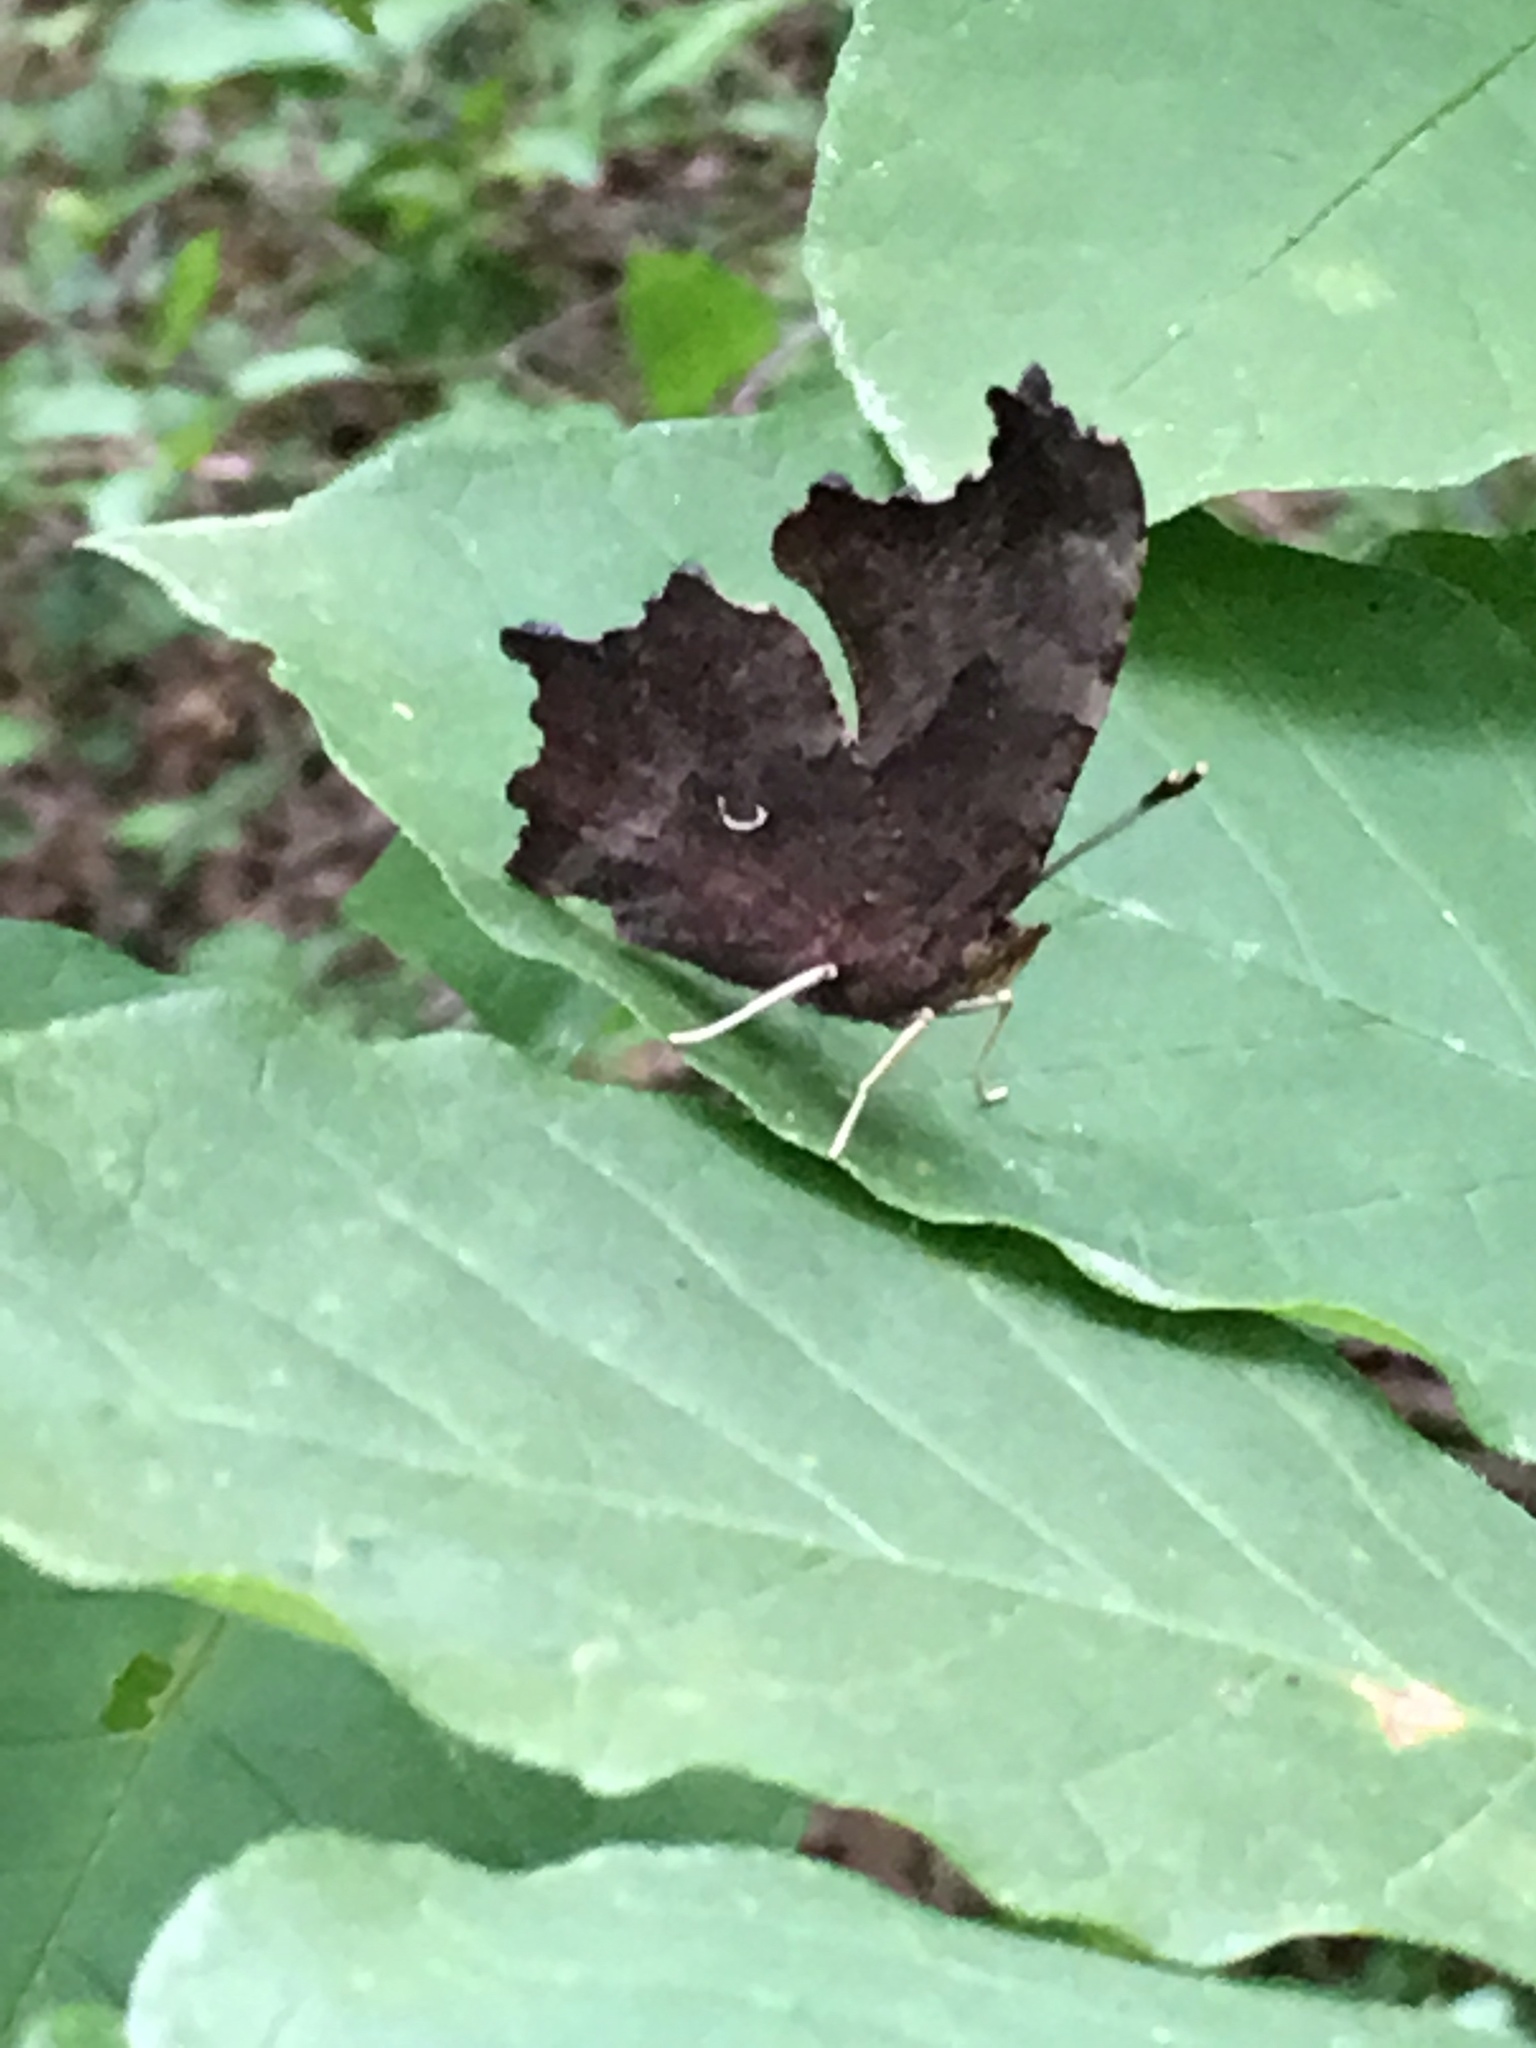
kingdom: Animalia
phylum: Arthropoda
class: Insecta
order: Lepidoptera
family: Nymphalidae
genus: Polygonia
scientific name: Polygonia interrogationis
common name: Question mark
